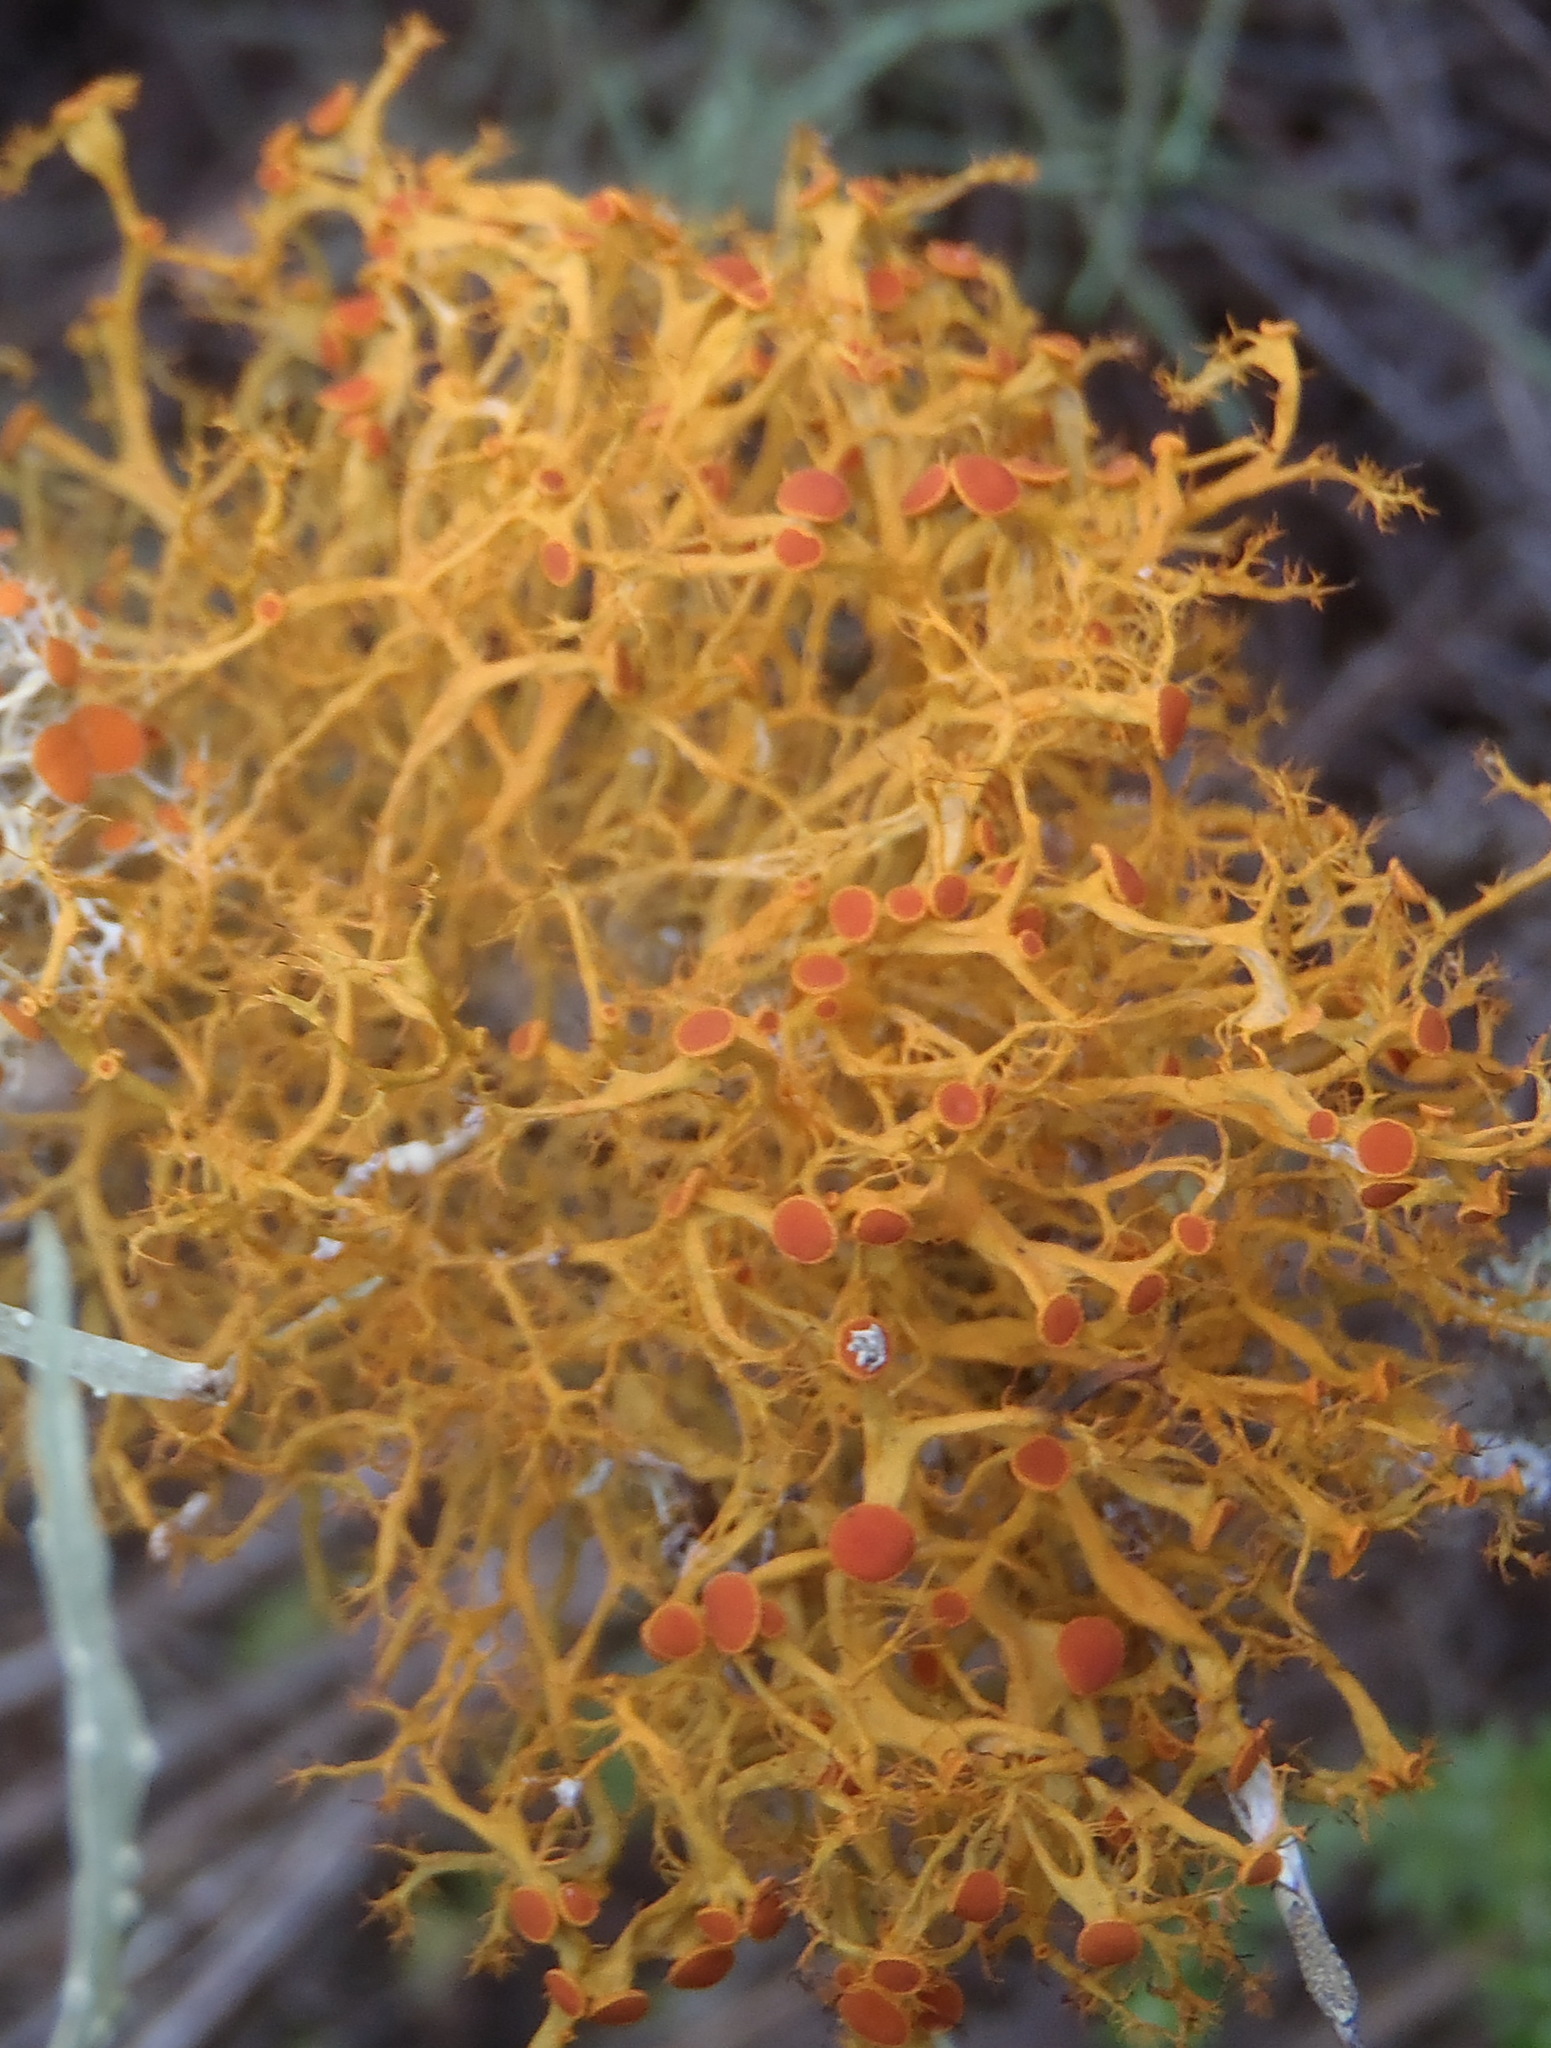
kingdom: Fungi
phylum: Ascomycota
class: Lecanoromycetes
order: Teloschistales
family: Teloschistaceae
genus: Teloschistes
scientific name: Teloschistes inflatus
